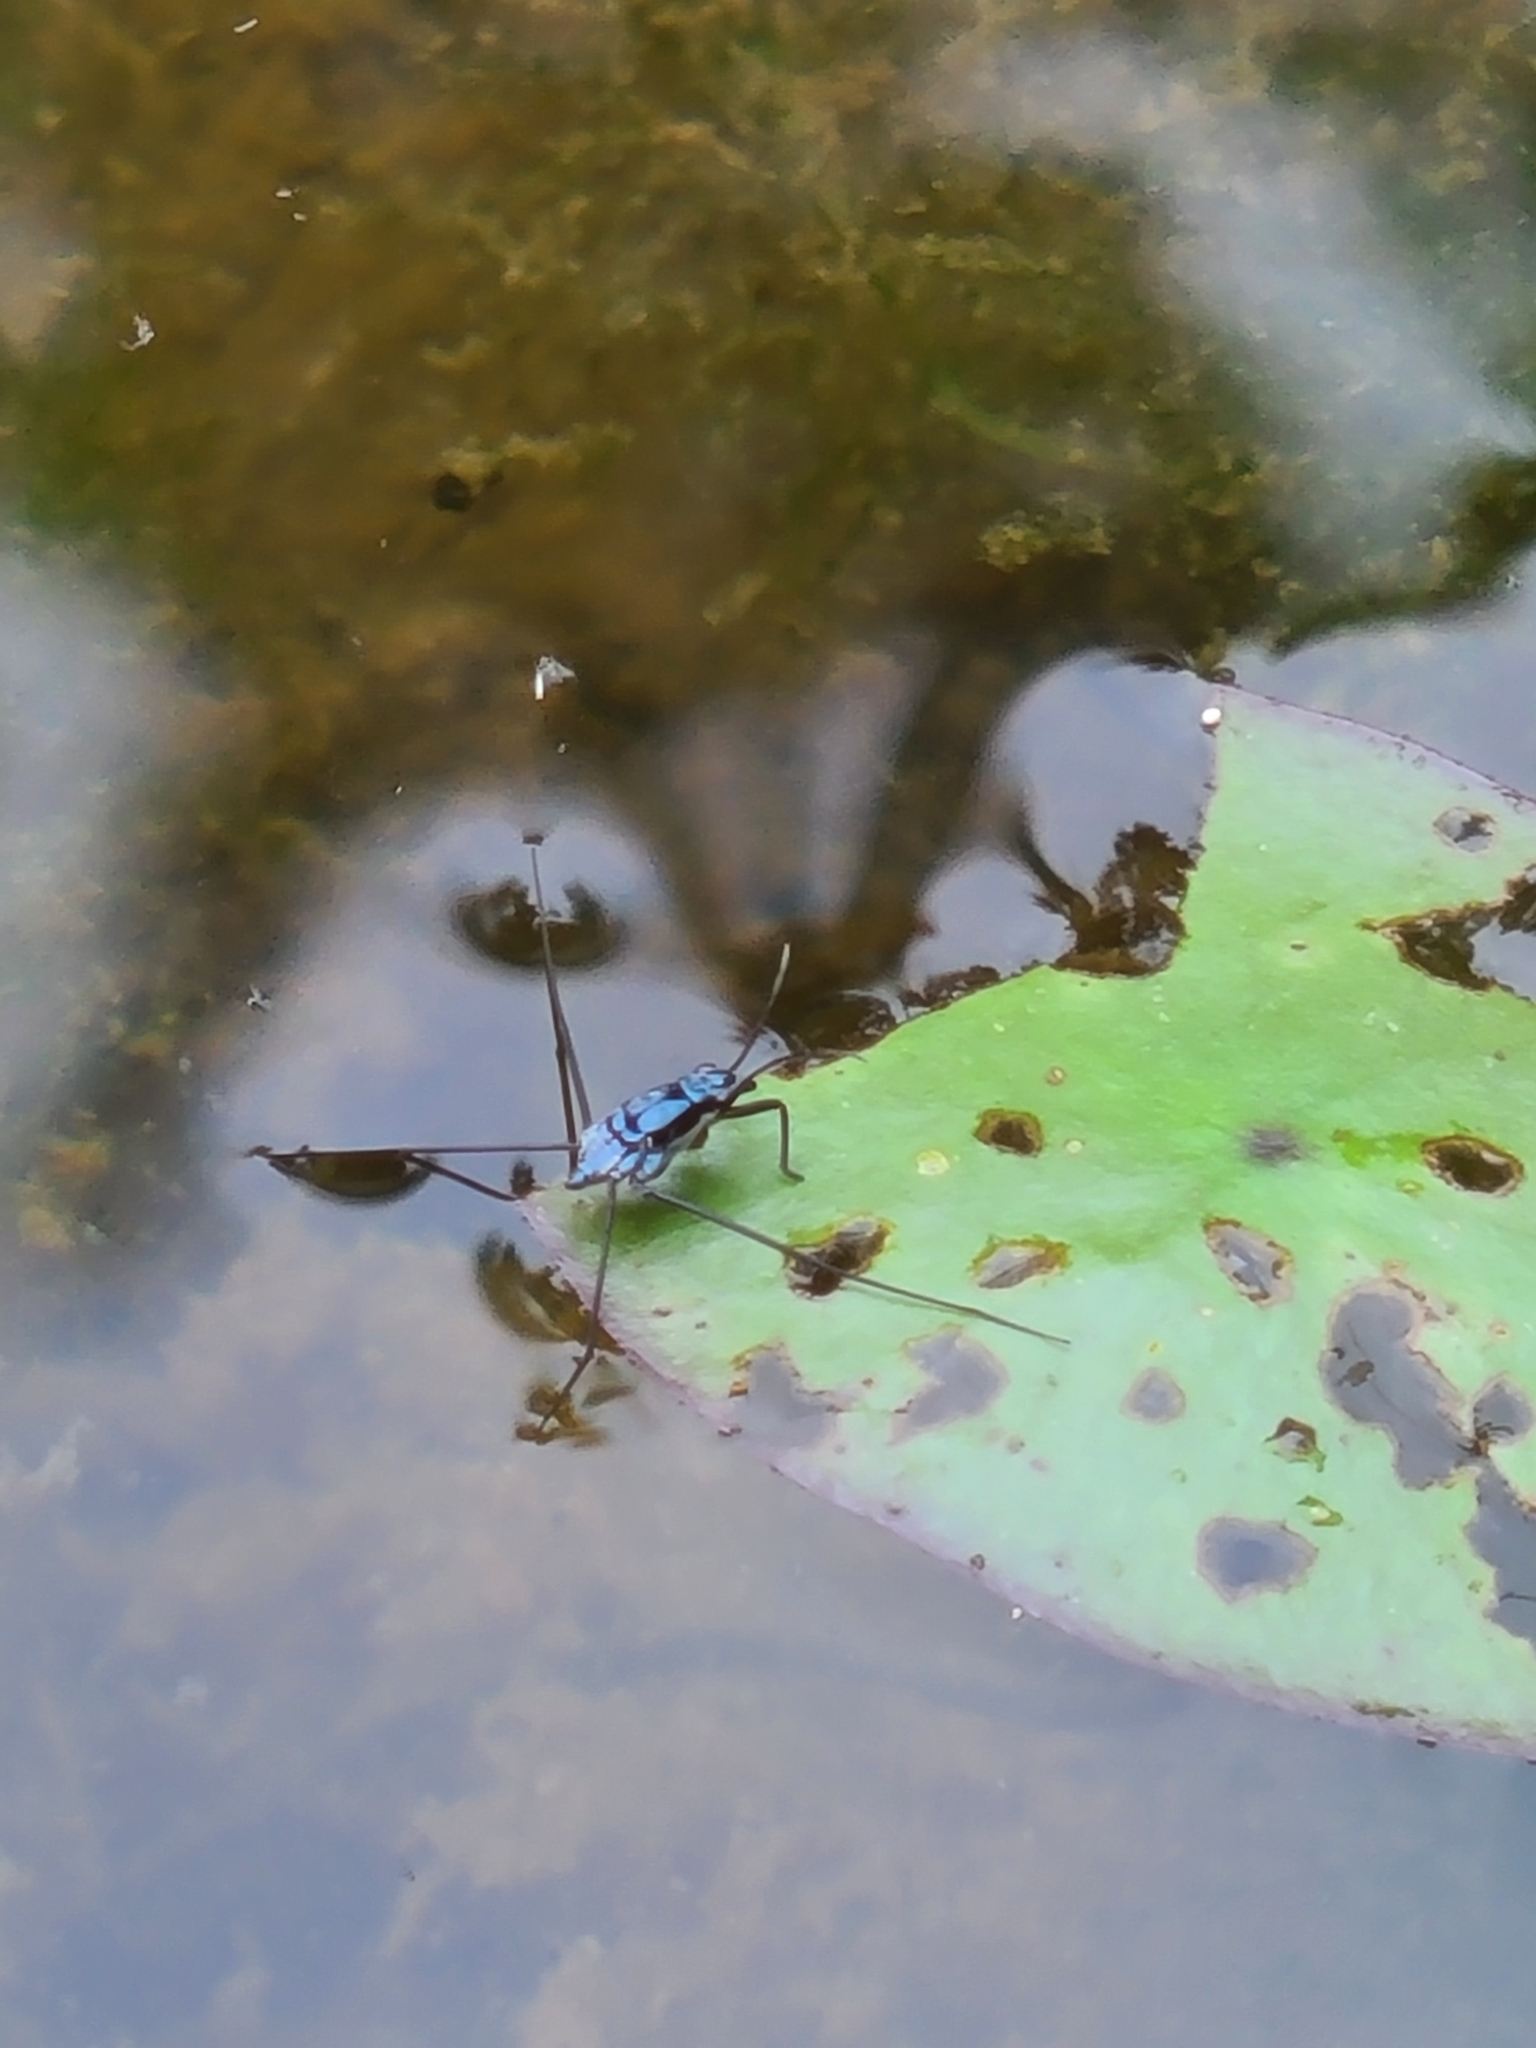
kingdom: Animalia
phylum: Arthropoda
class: Insecta
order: Hemiptera
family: Gerridae
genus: Neogerris
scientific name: Neogerris hesione
